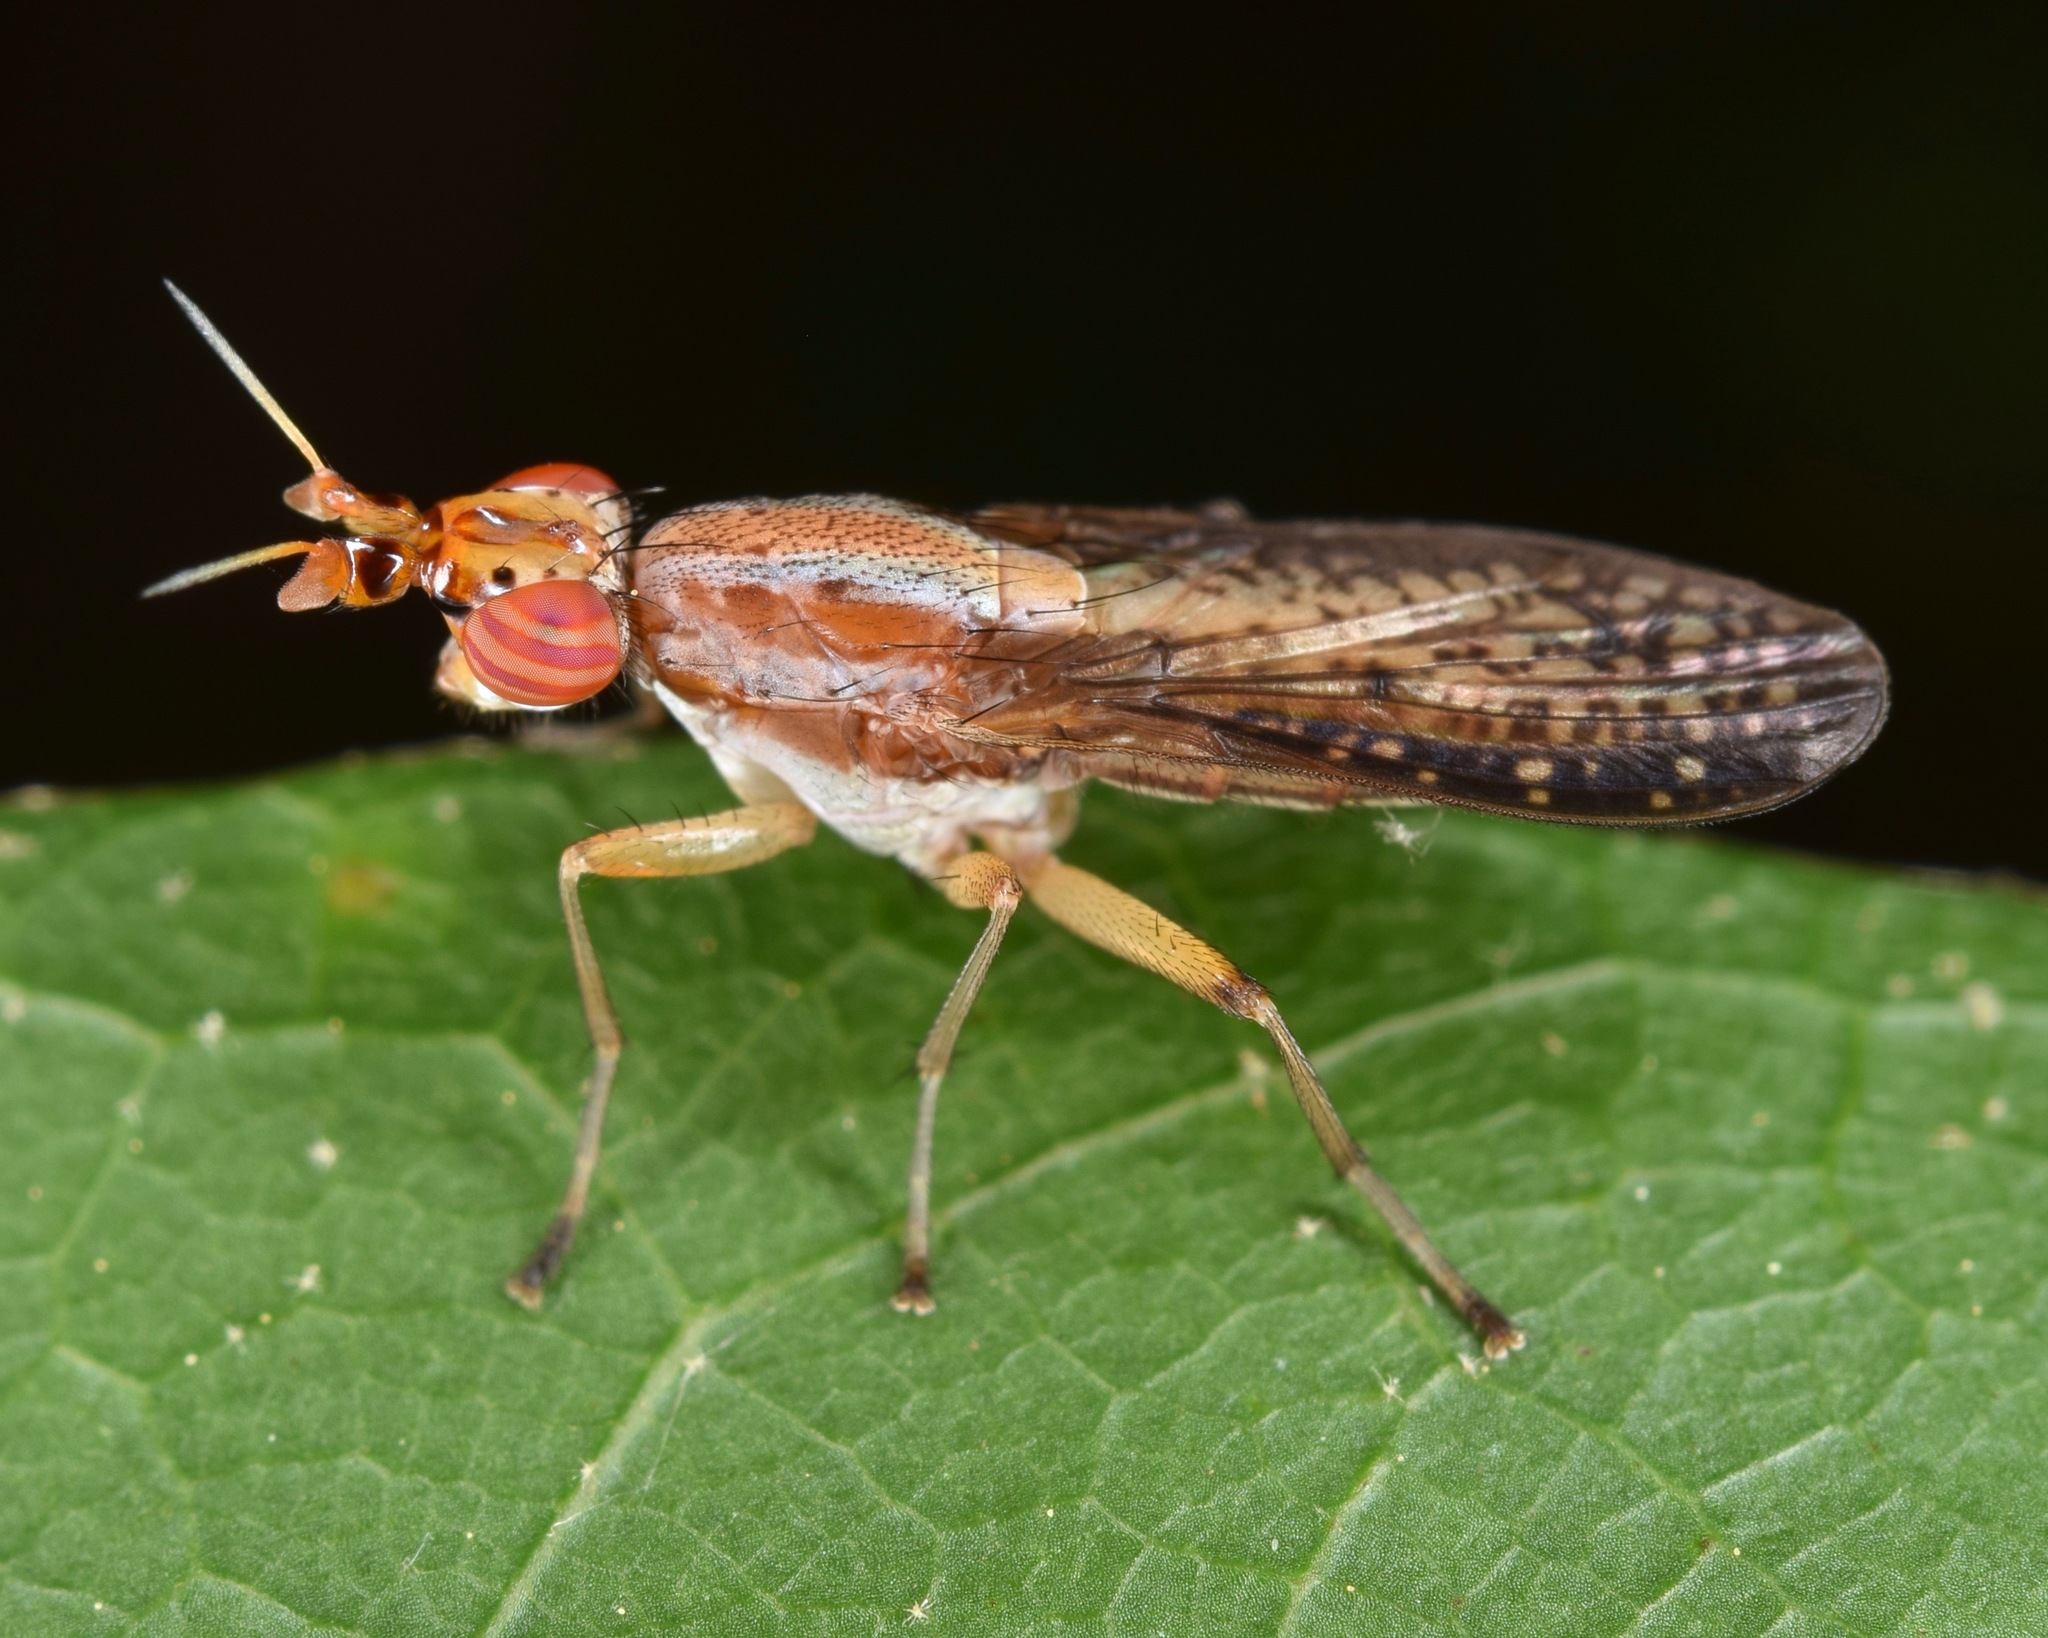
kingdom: Animalia
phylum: Arthropoda
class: Insecta
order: Diptera
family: Sciomyzidae
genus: Limnia
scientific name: Limnia shannoni
